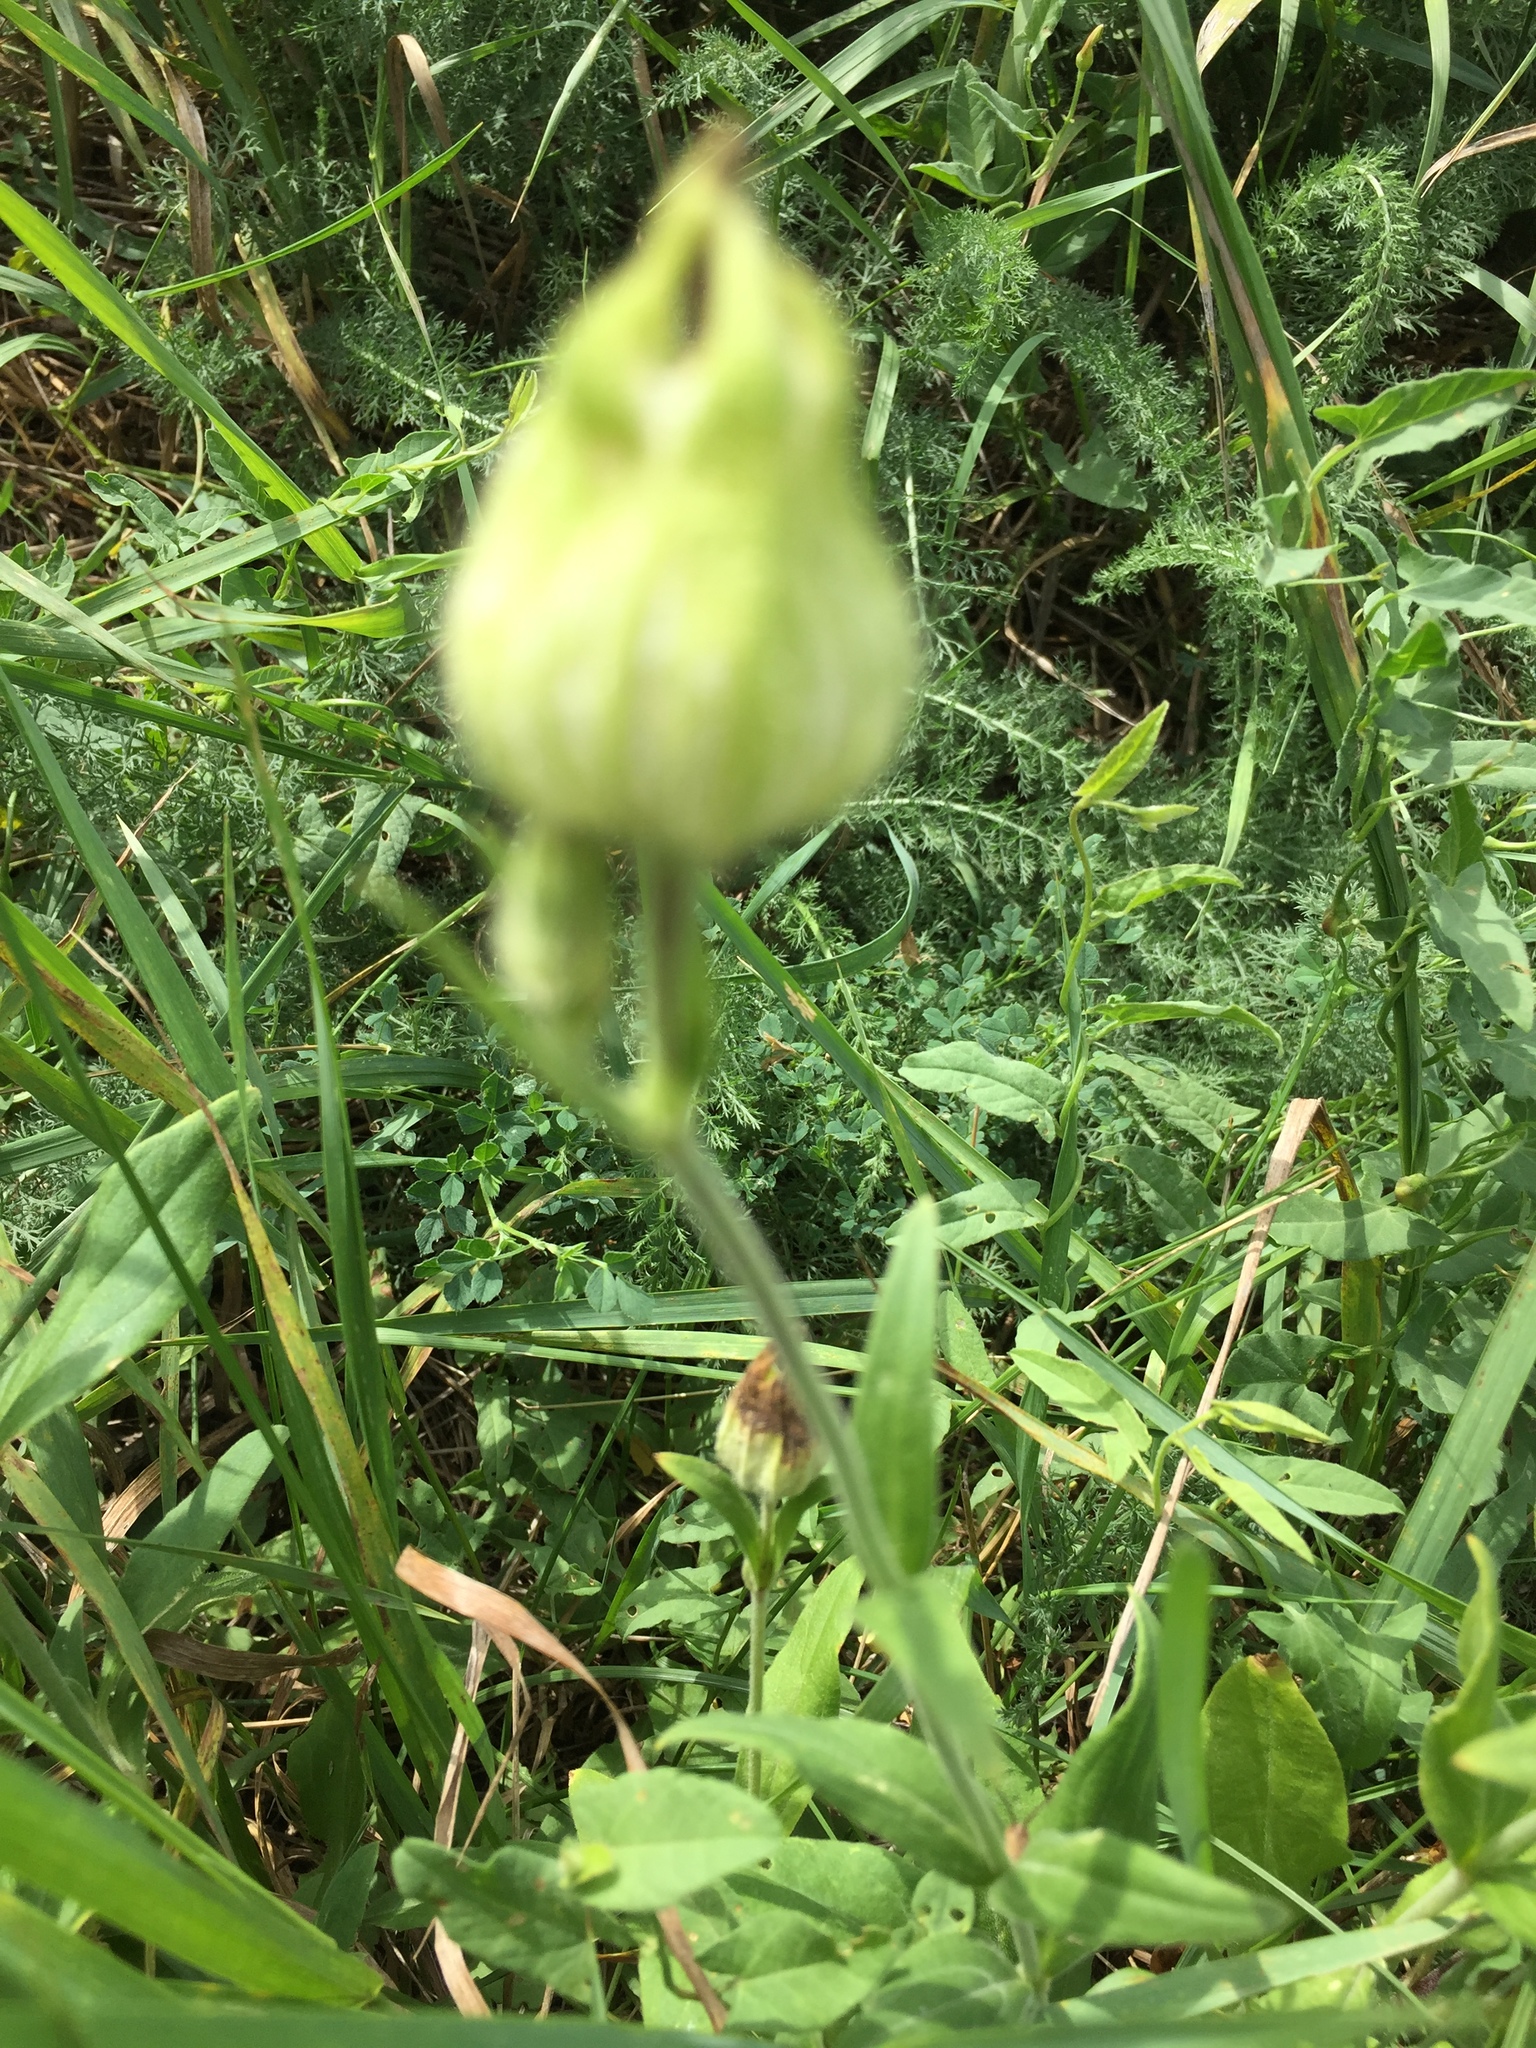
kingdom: Plantae
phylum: Tracheophyta
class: Magnoliopsida
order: Caryophyllales
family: Caryophyllaceae
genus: Silene
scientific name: Silene latifolia
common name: White campion
